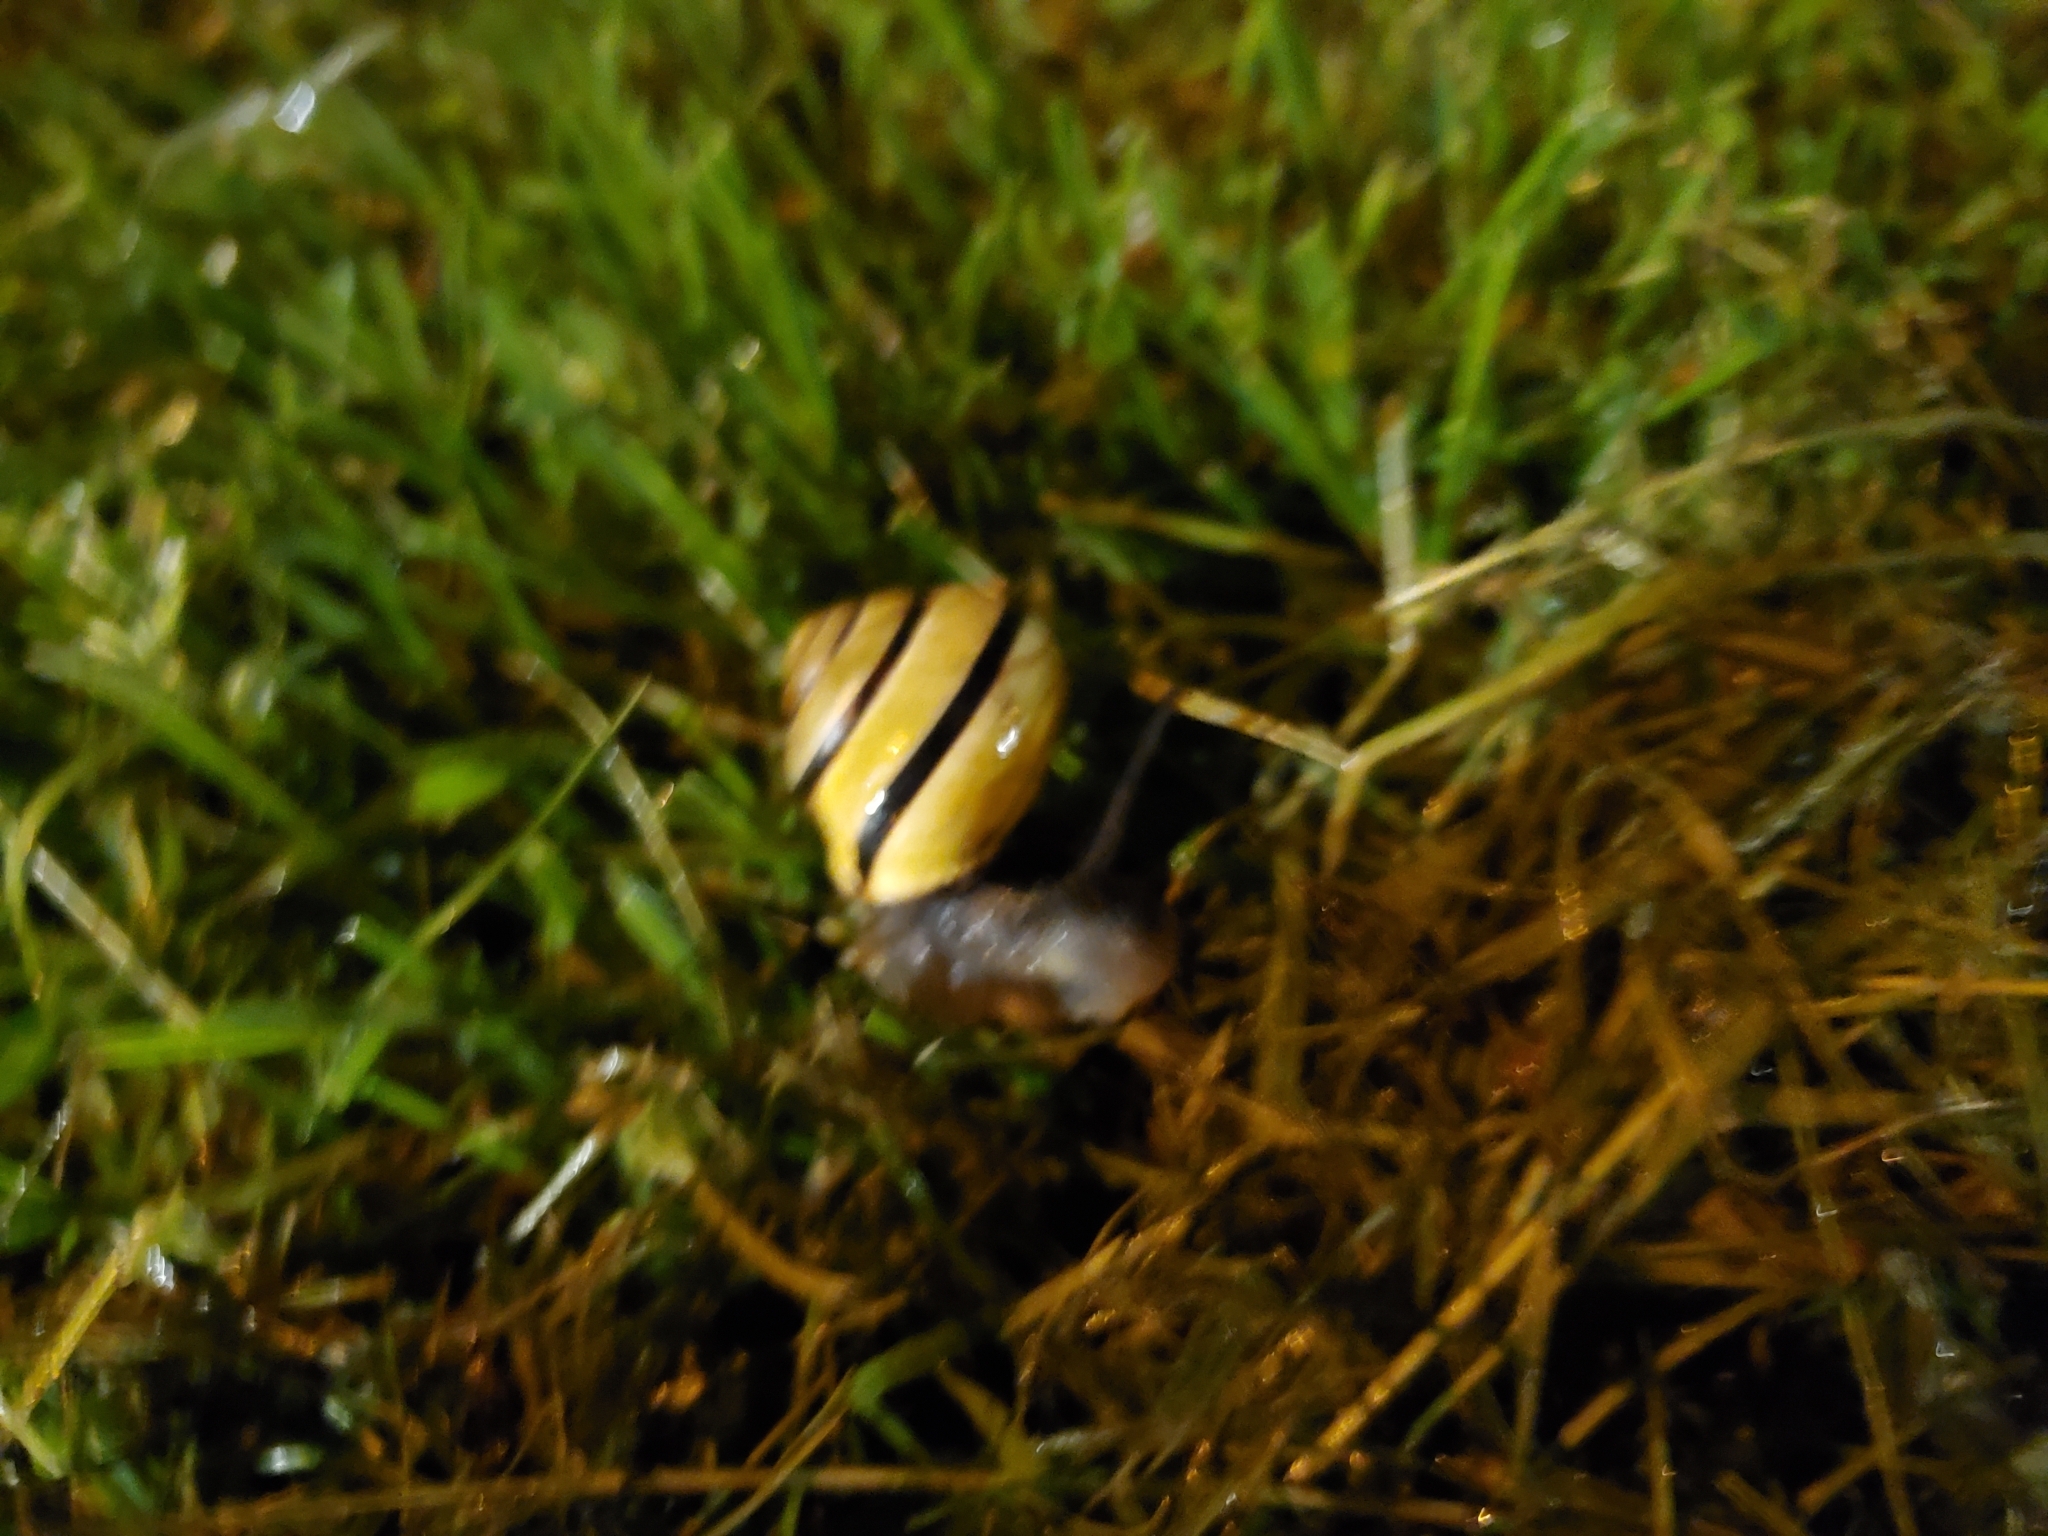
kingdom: Animalia
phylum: Mollusca
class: Gastropoda
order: Stylommatophora
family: Helicidae
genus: Cepaea
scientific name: Cepaea nemoralis
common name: Grovesnail
